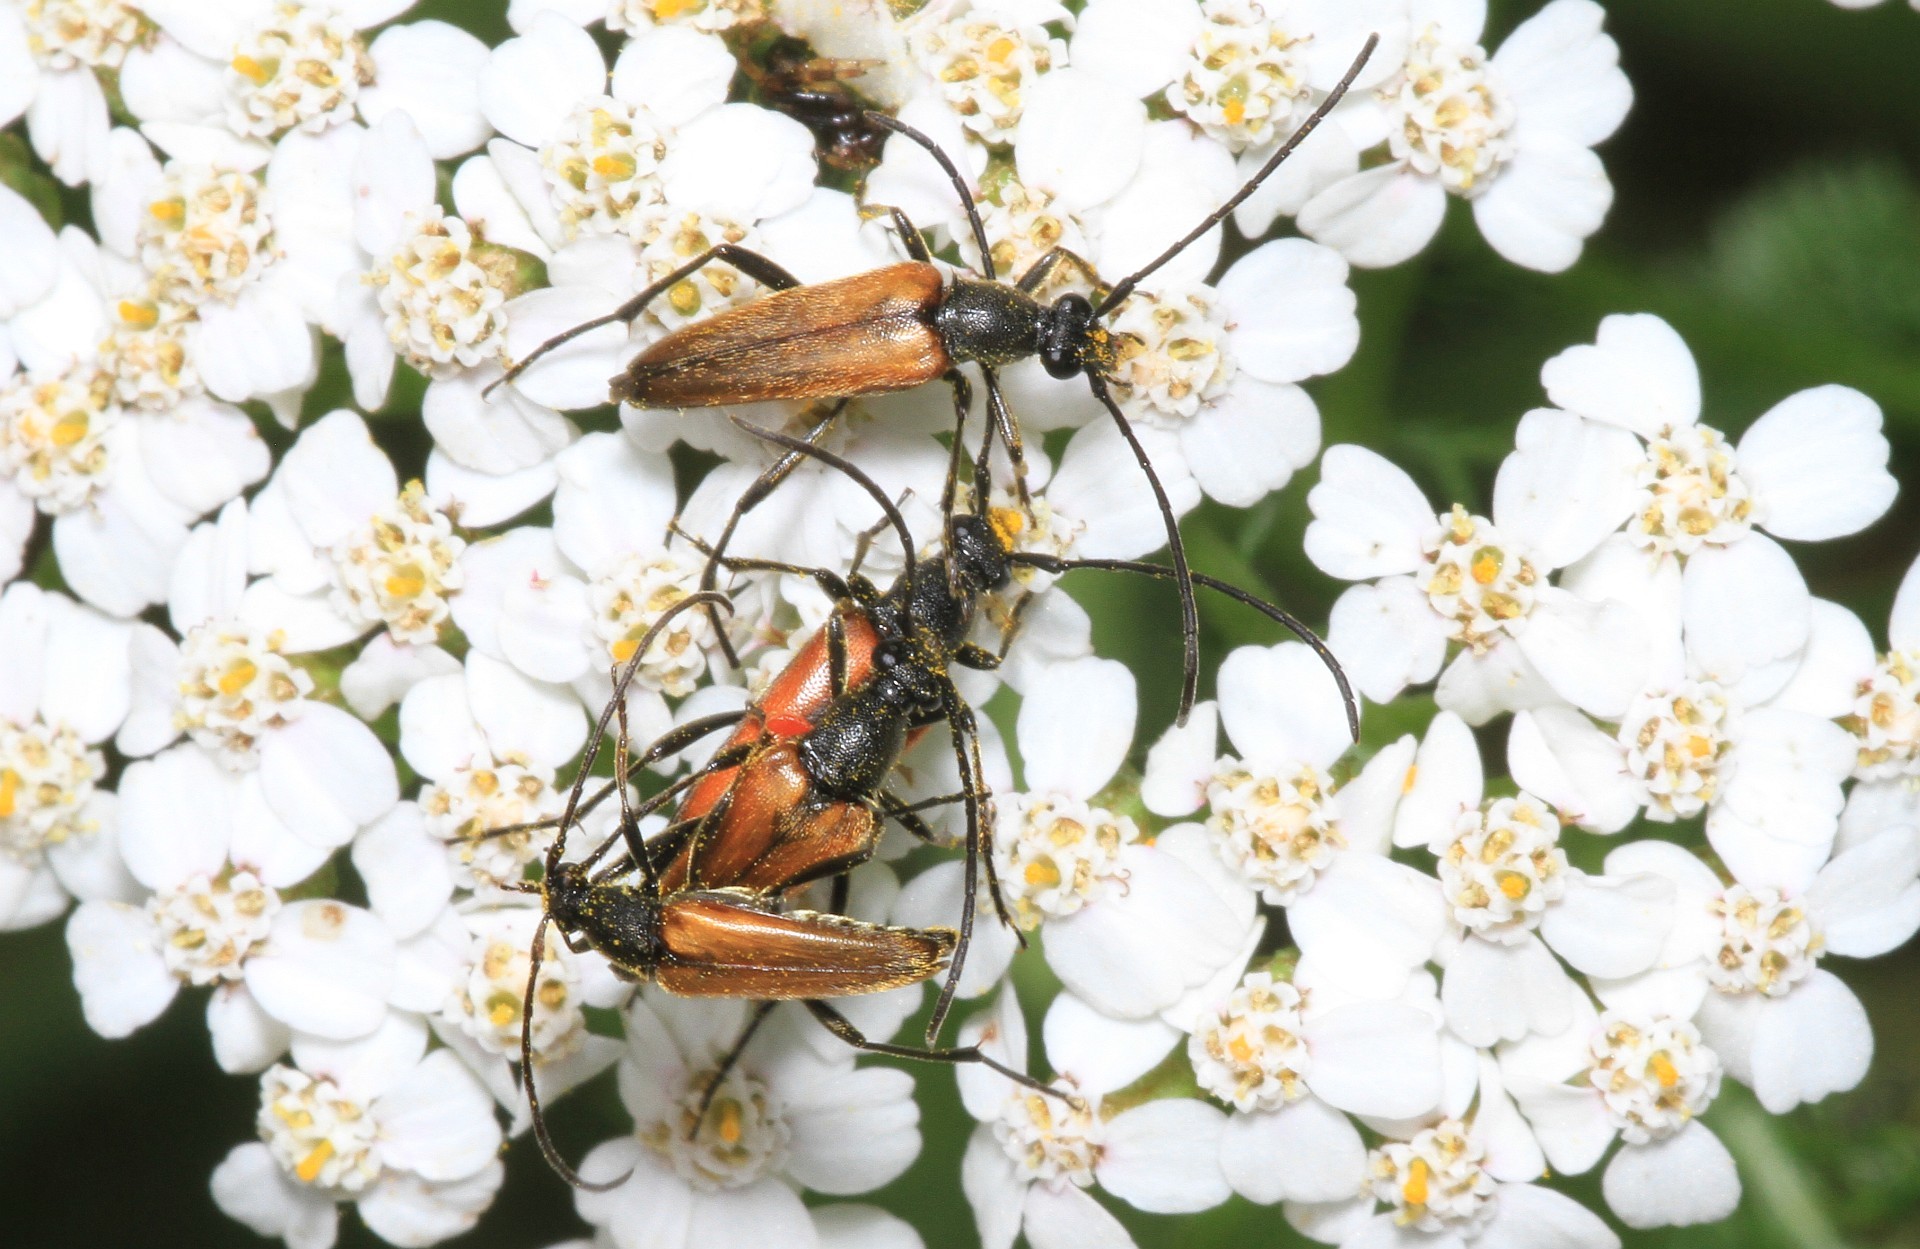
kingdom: Animalia
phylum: Arthropoda
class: Insecta
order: Coleoptera
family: Cerambycidae
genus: Stenurella
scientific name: Stenurella melanura
